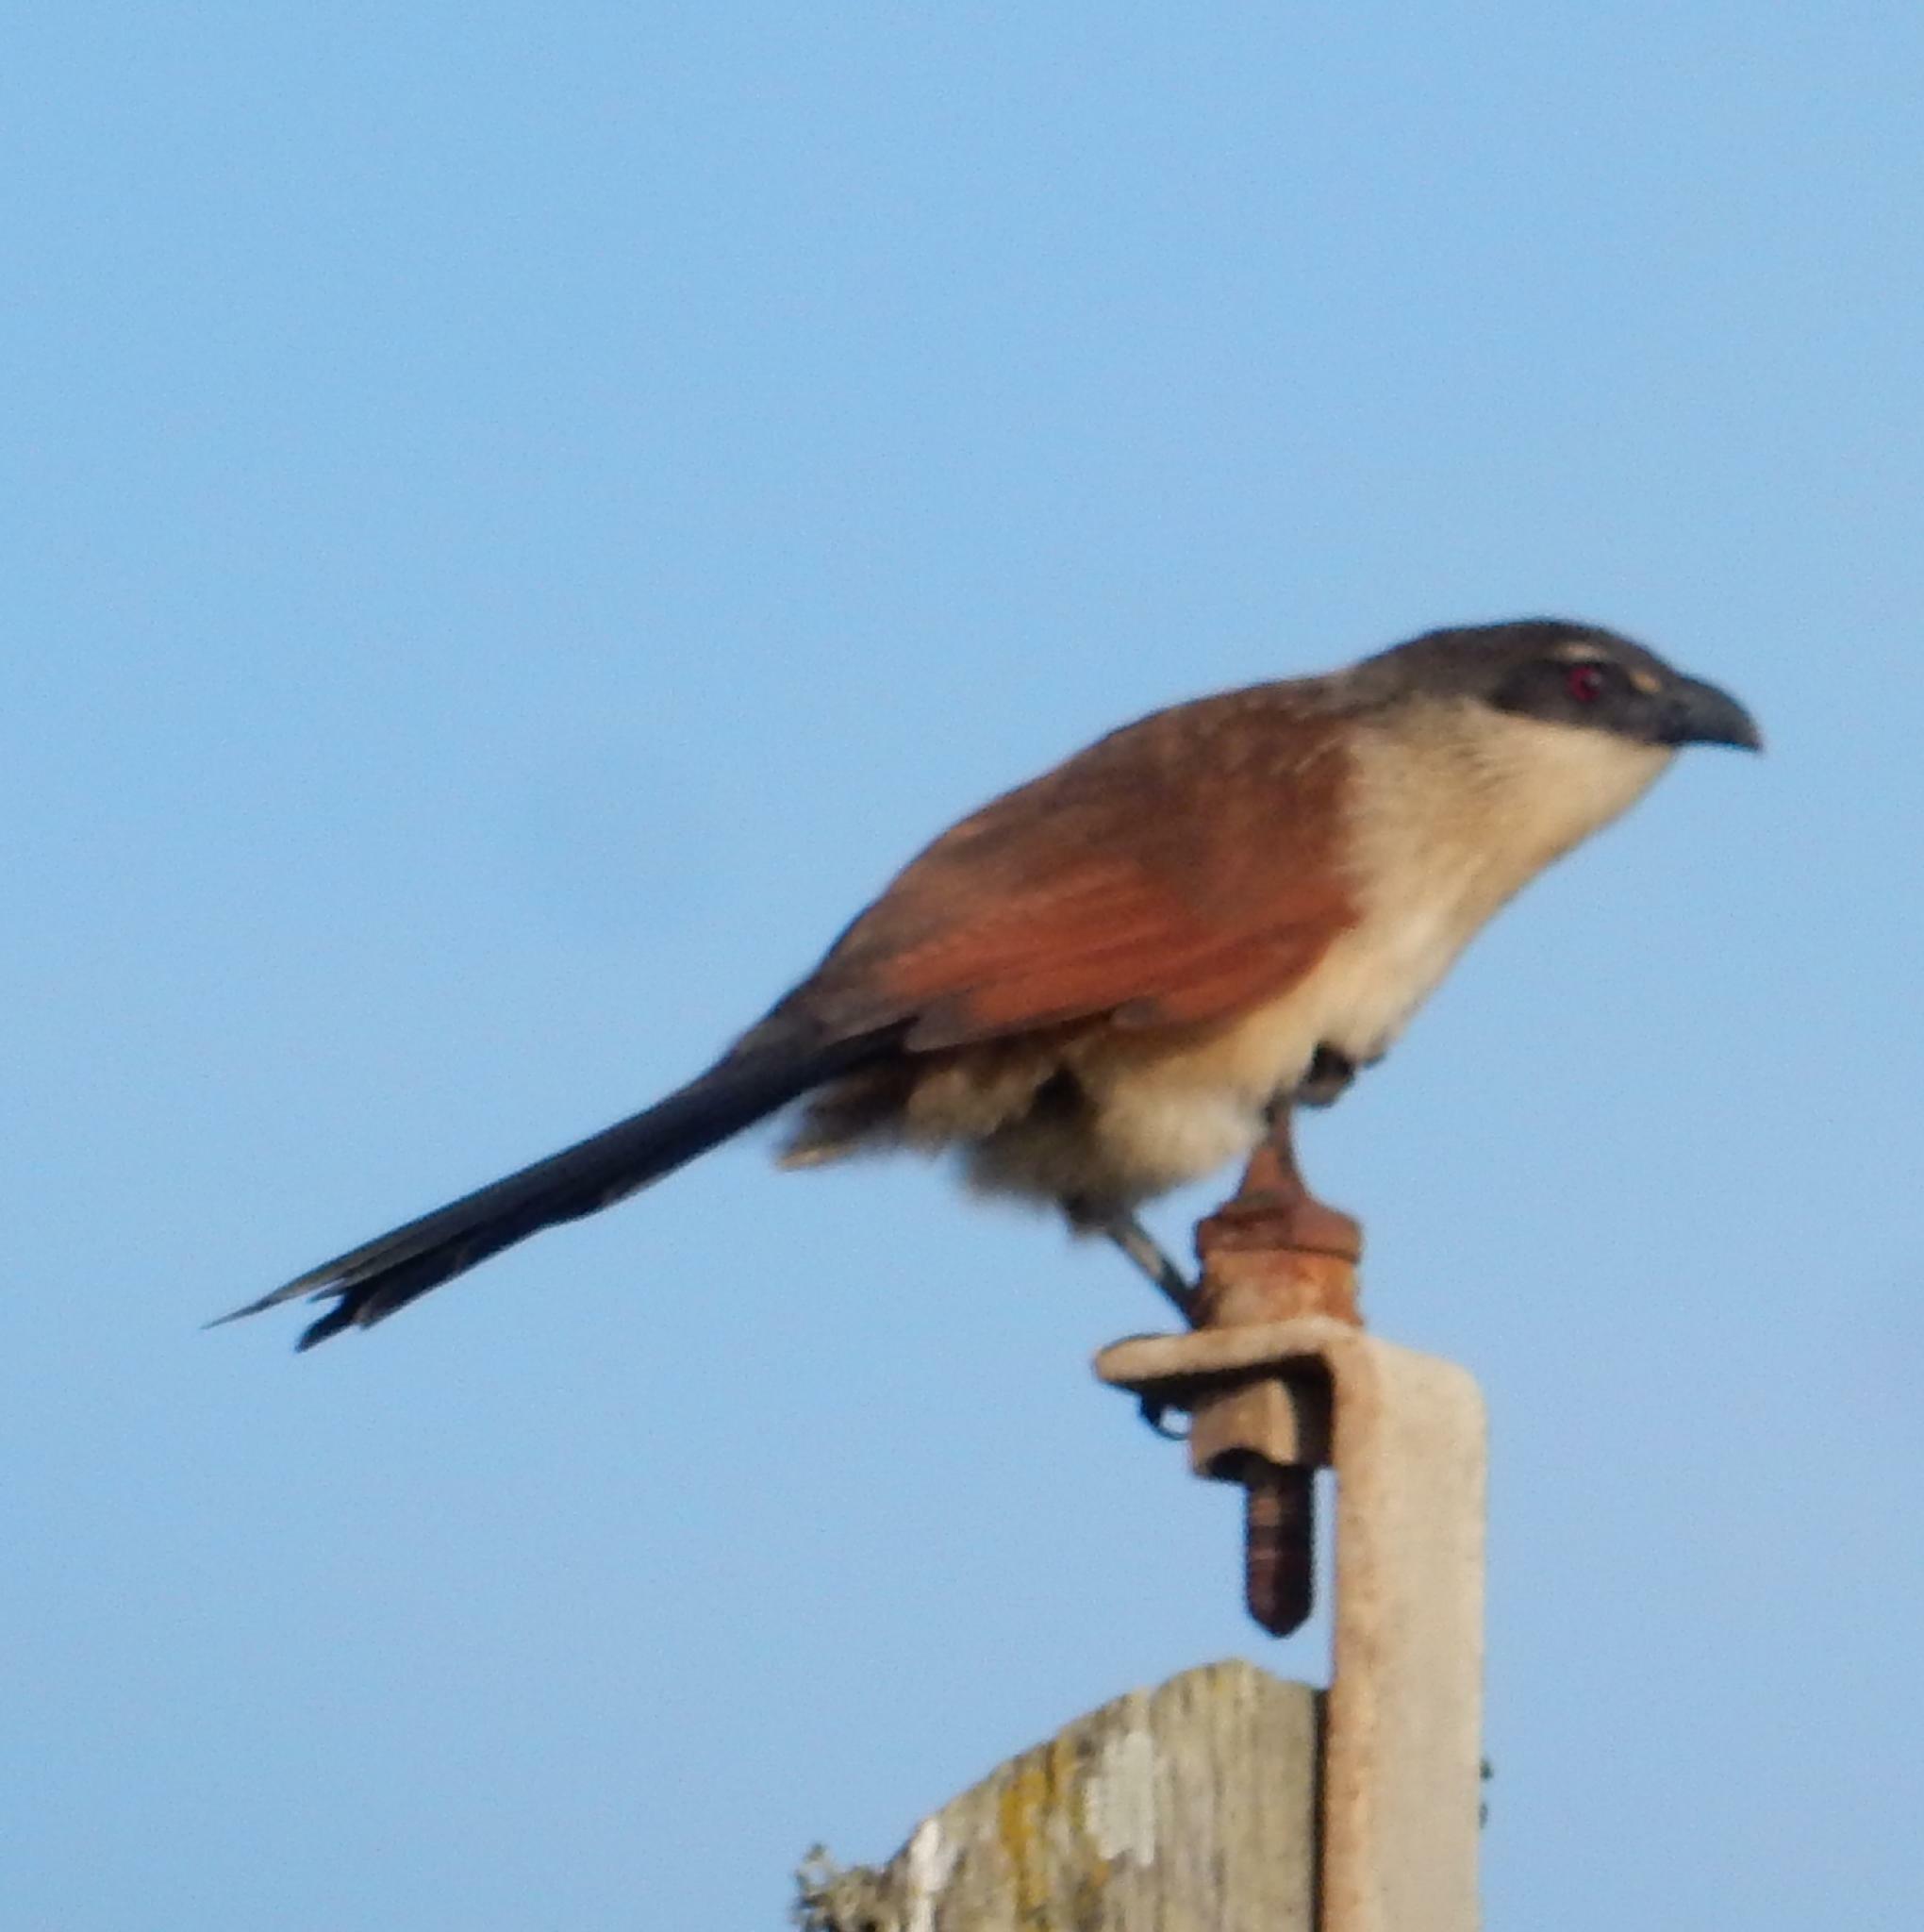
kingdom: Animalia
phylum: Chordata
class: Aves
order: Cuculiformes
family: Cuculidae
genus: Centropus
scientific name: Centropus superciliosus
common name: White-browed coucal
